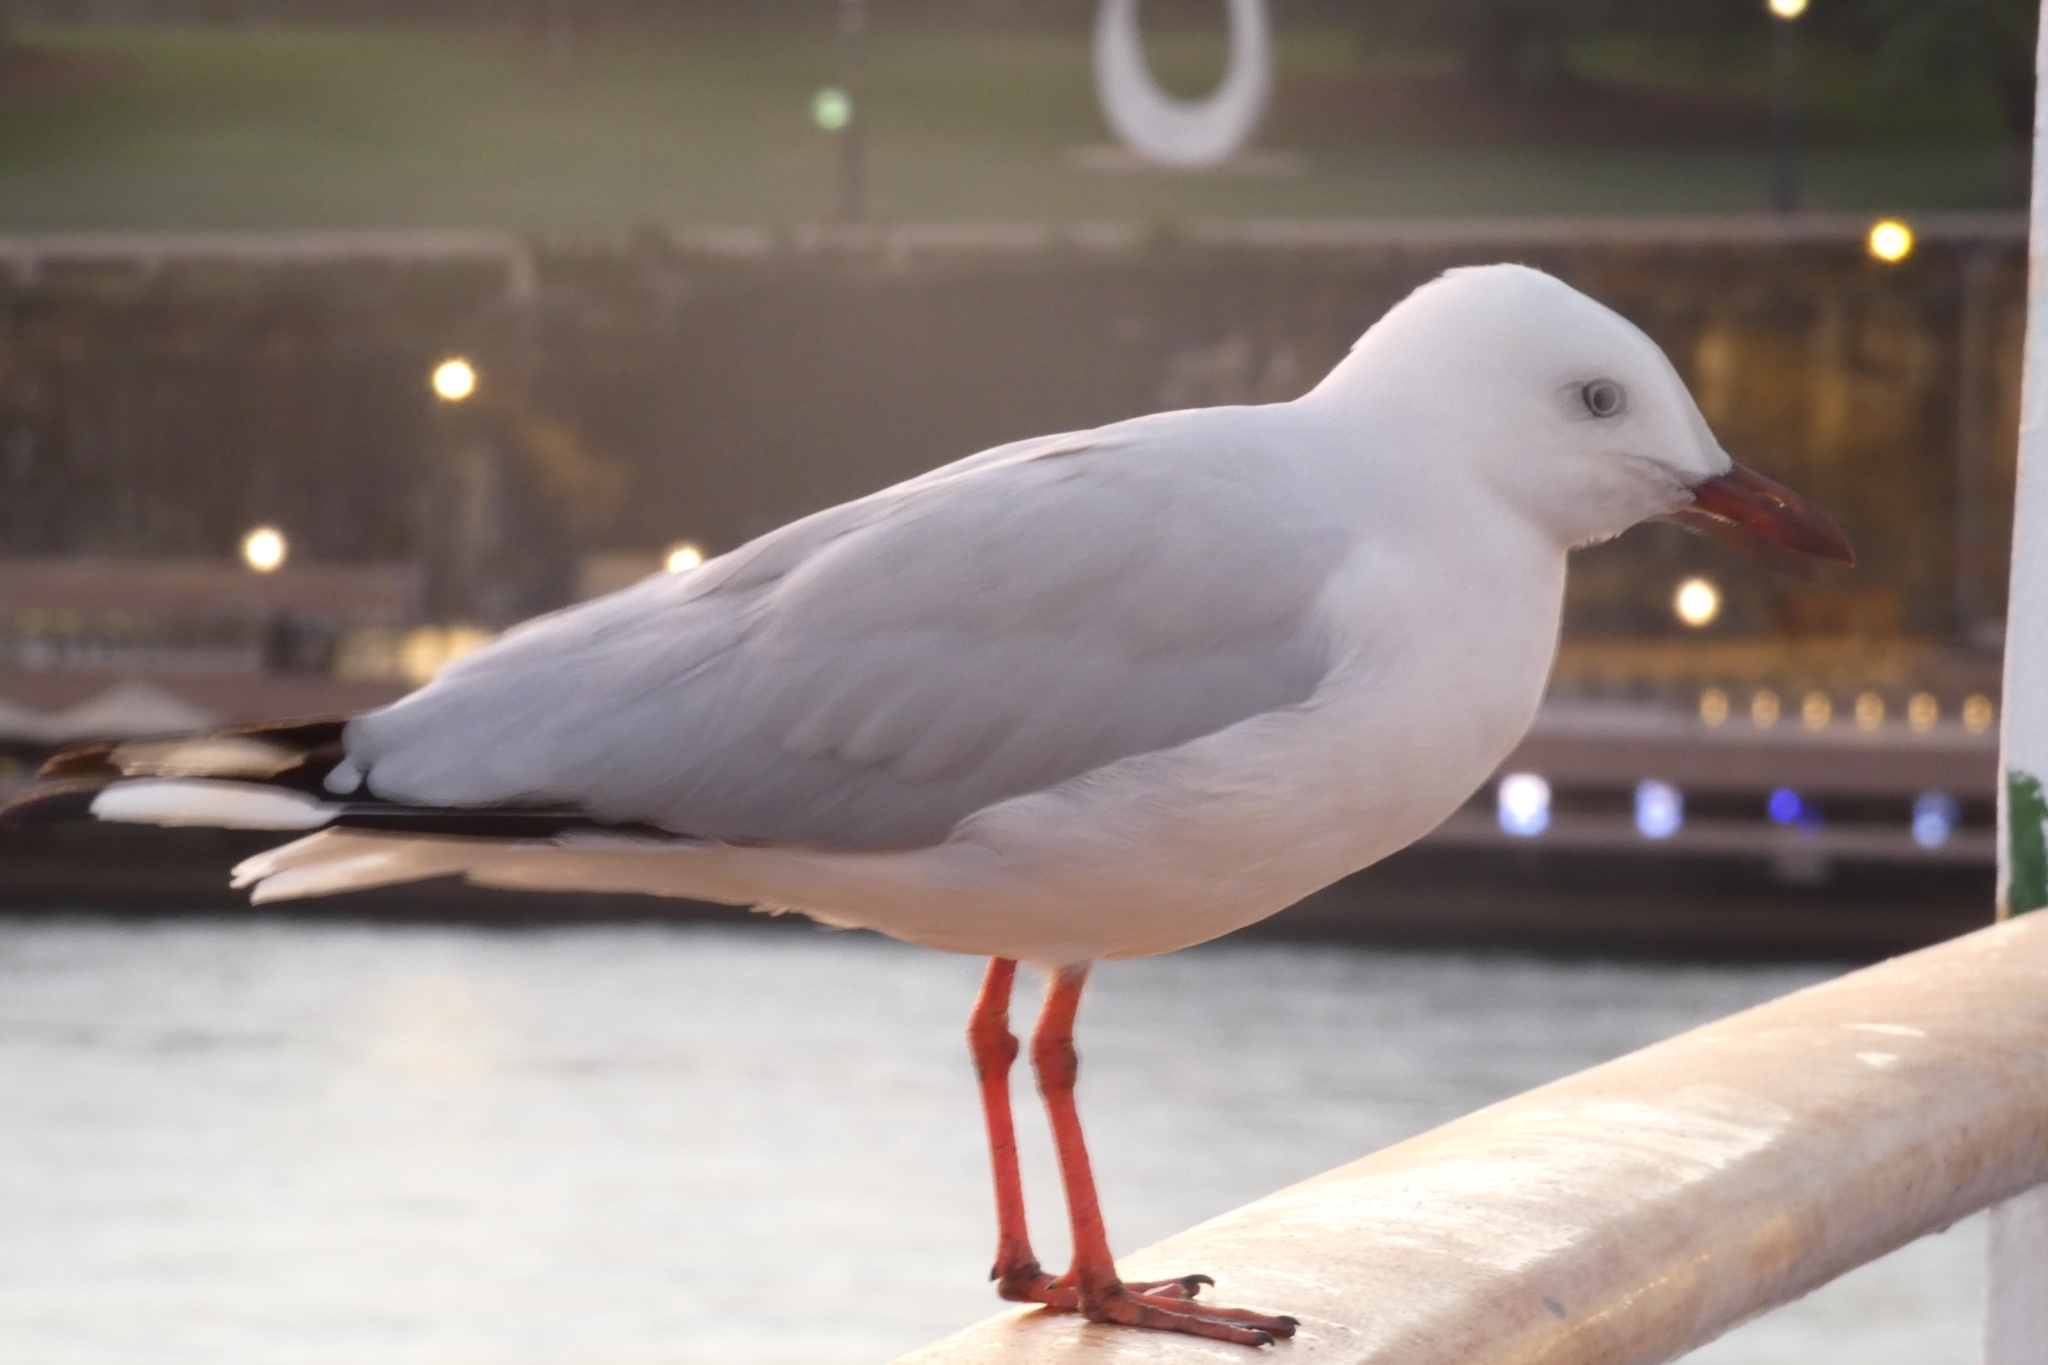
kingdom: Animalia
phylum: Chordata
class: Aves
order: Charadriiformes
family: Laridae
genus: Chroicocephalus
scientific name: Chroicocephalus novaehollandiae
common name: Silver gull
